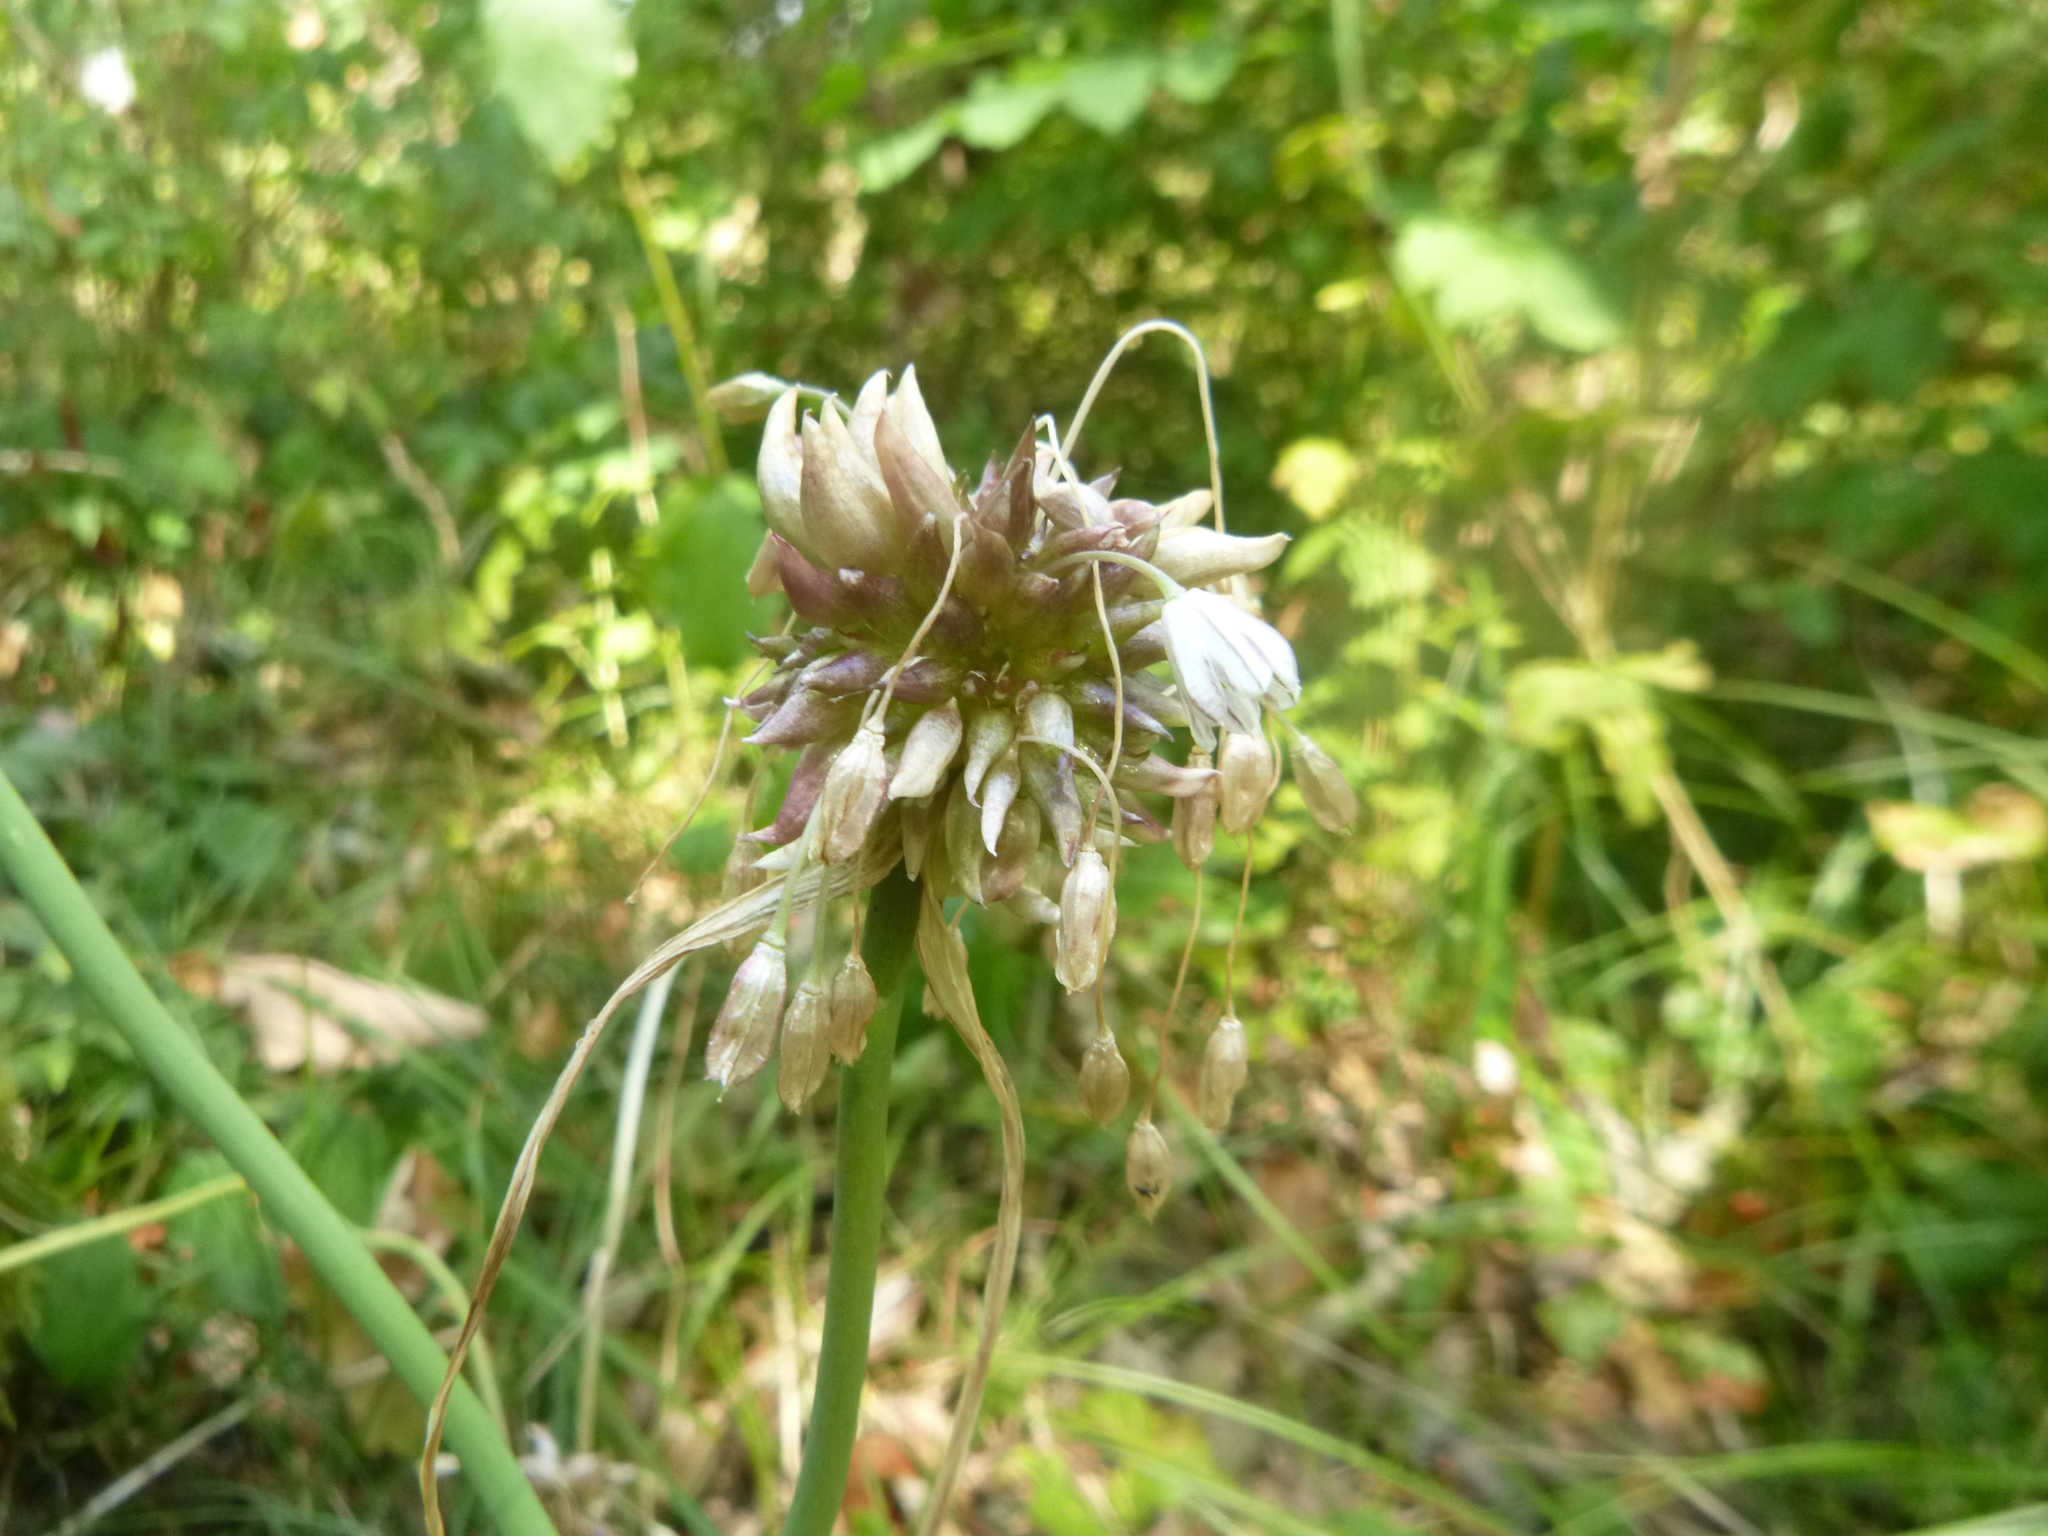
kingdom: Plantae
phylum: Tracheophyta
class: Liliopsida
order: Asparagales
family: Amaryllidaceae
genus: Allium
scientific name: Allium oleraceum
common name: Field garlic
